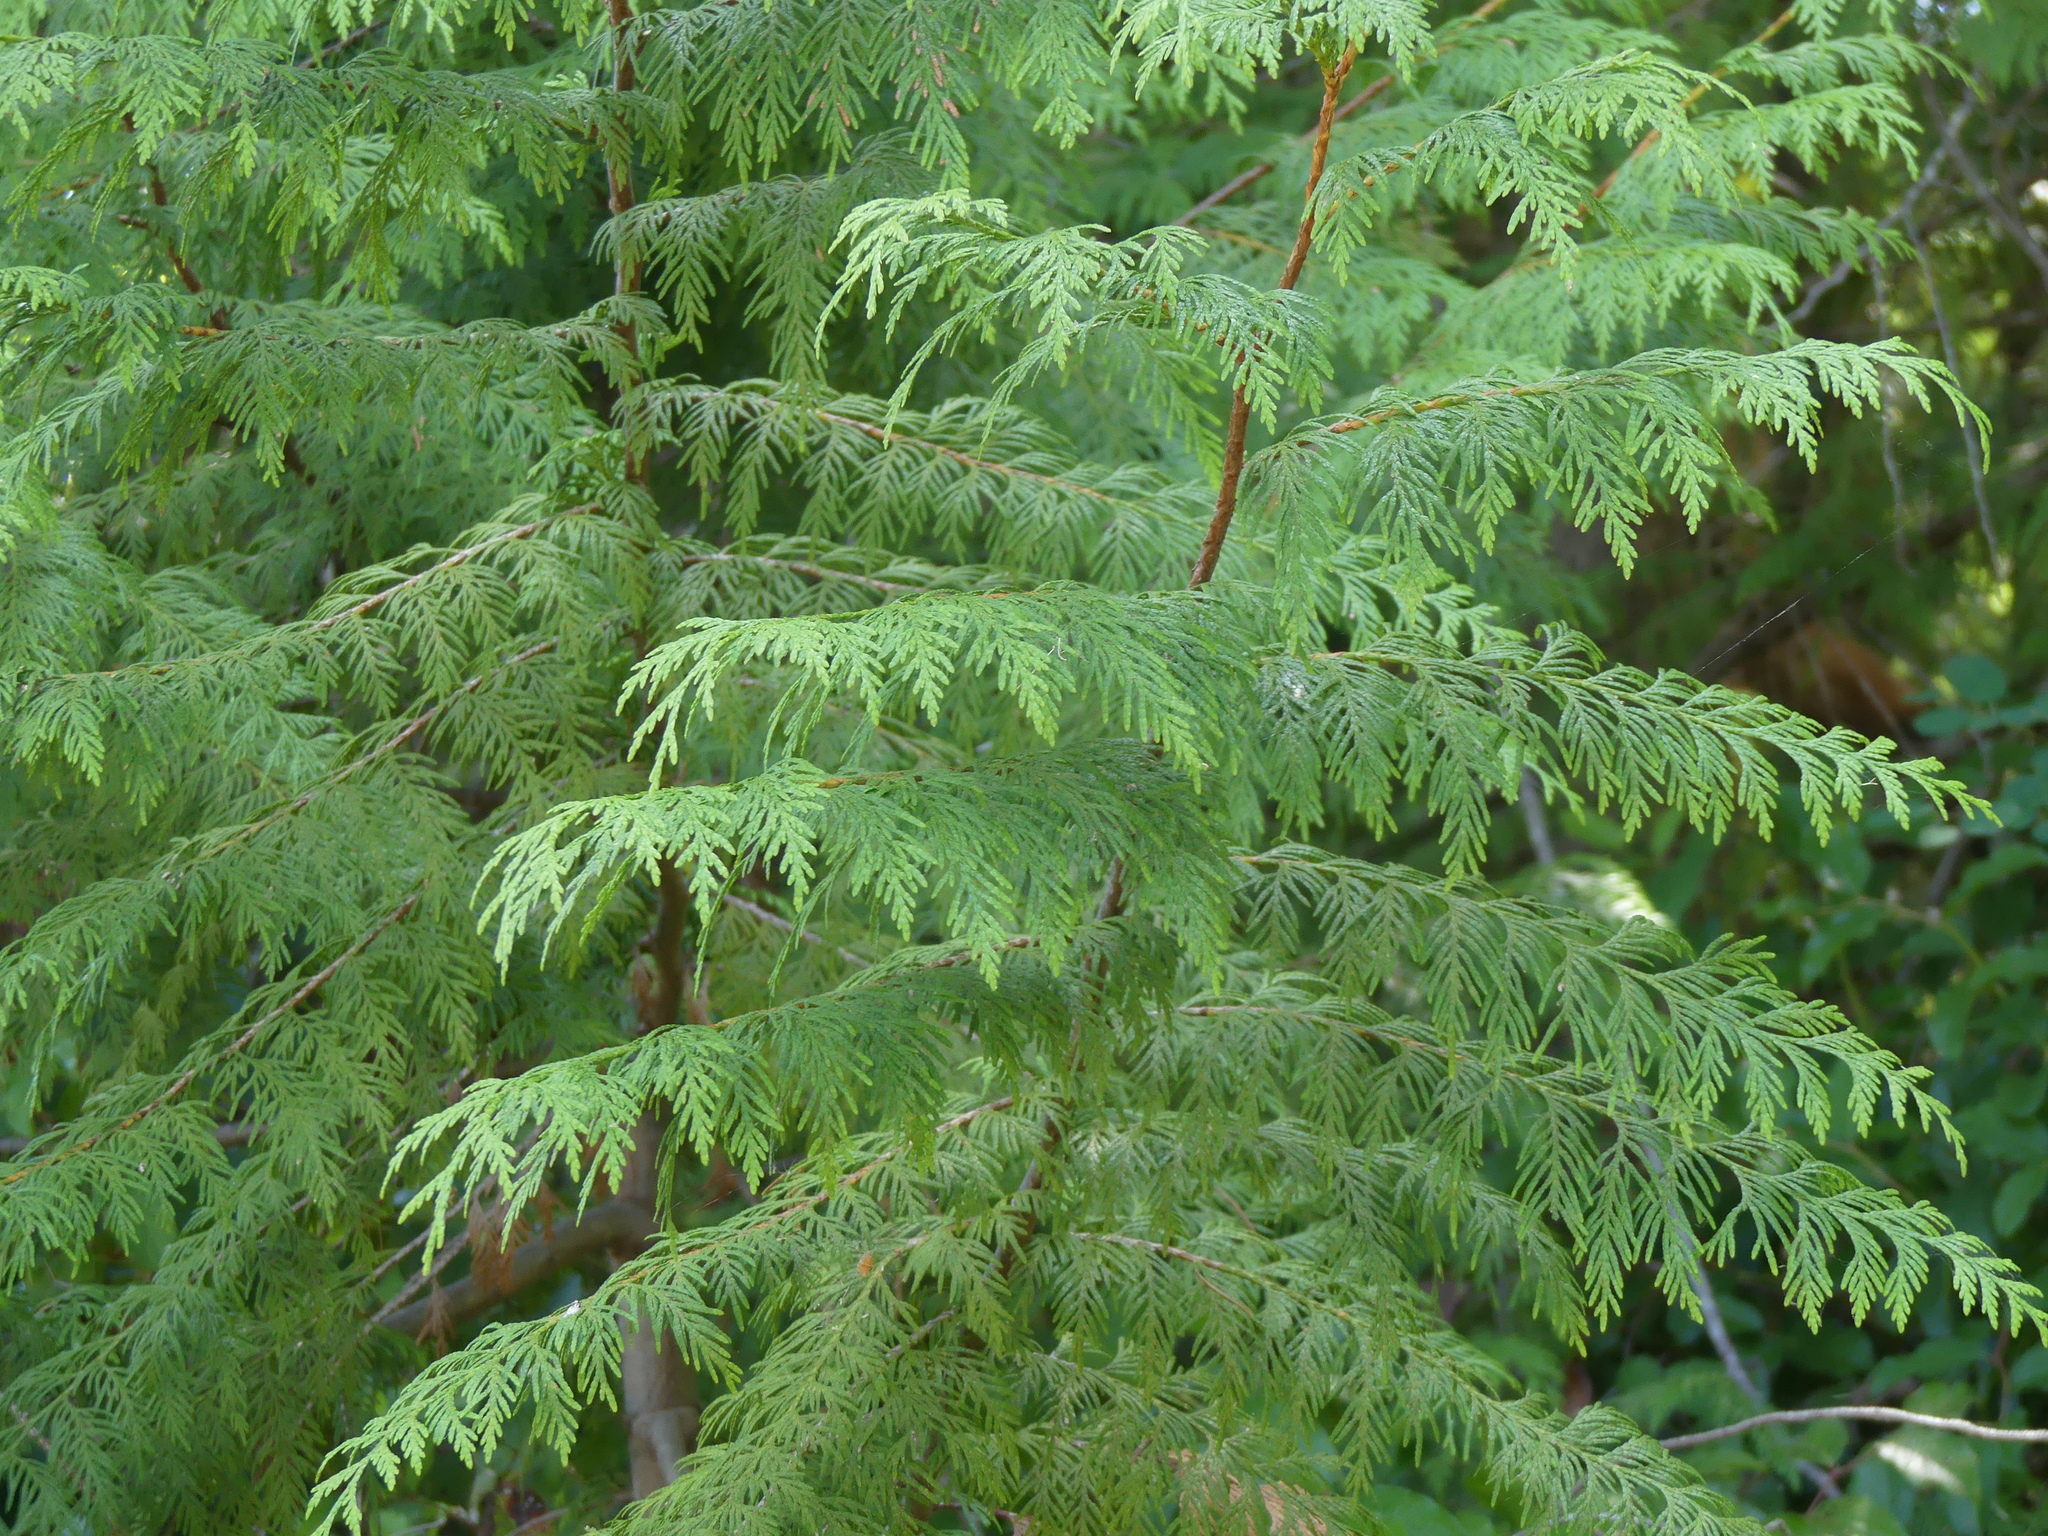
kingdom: Plantae
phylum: Tracheophyta
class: Pinopsida
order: Pinales
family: Cupressaceae
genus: Thuja
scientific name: Thuja plicata
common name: Western red-cedar
